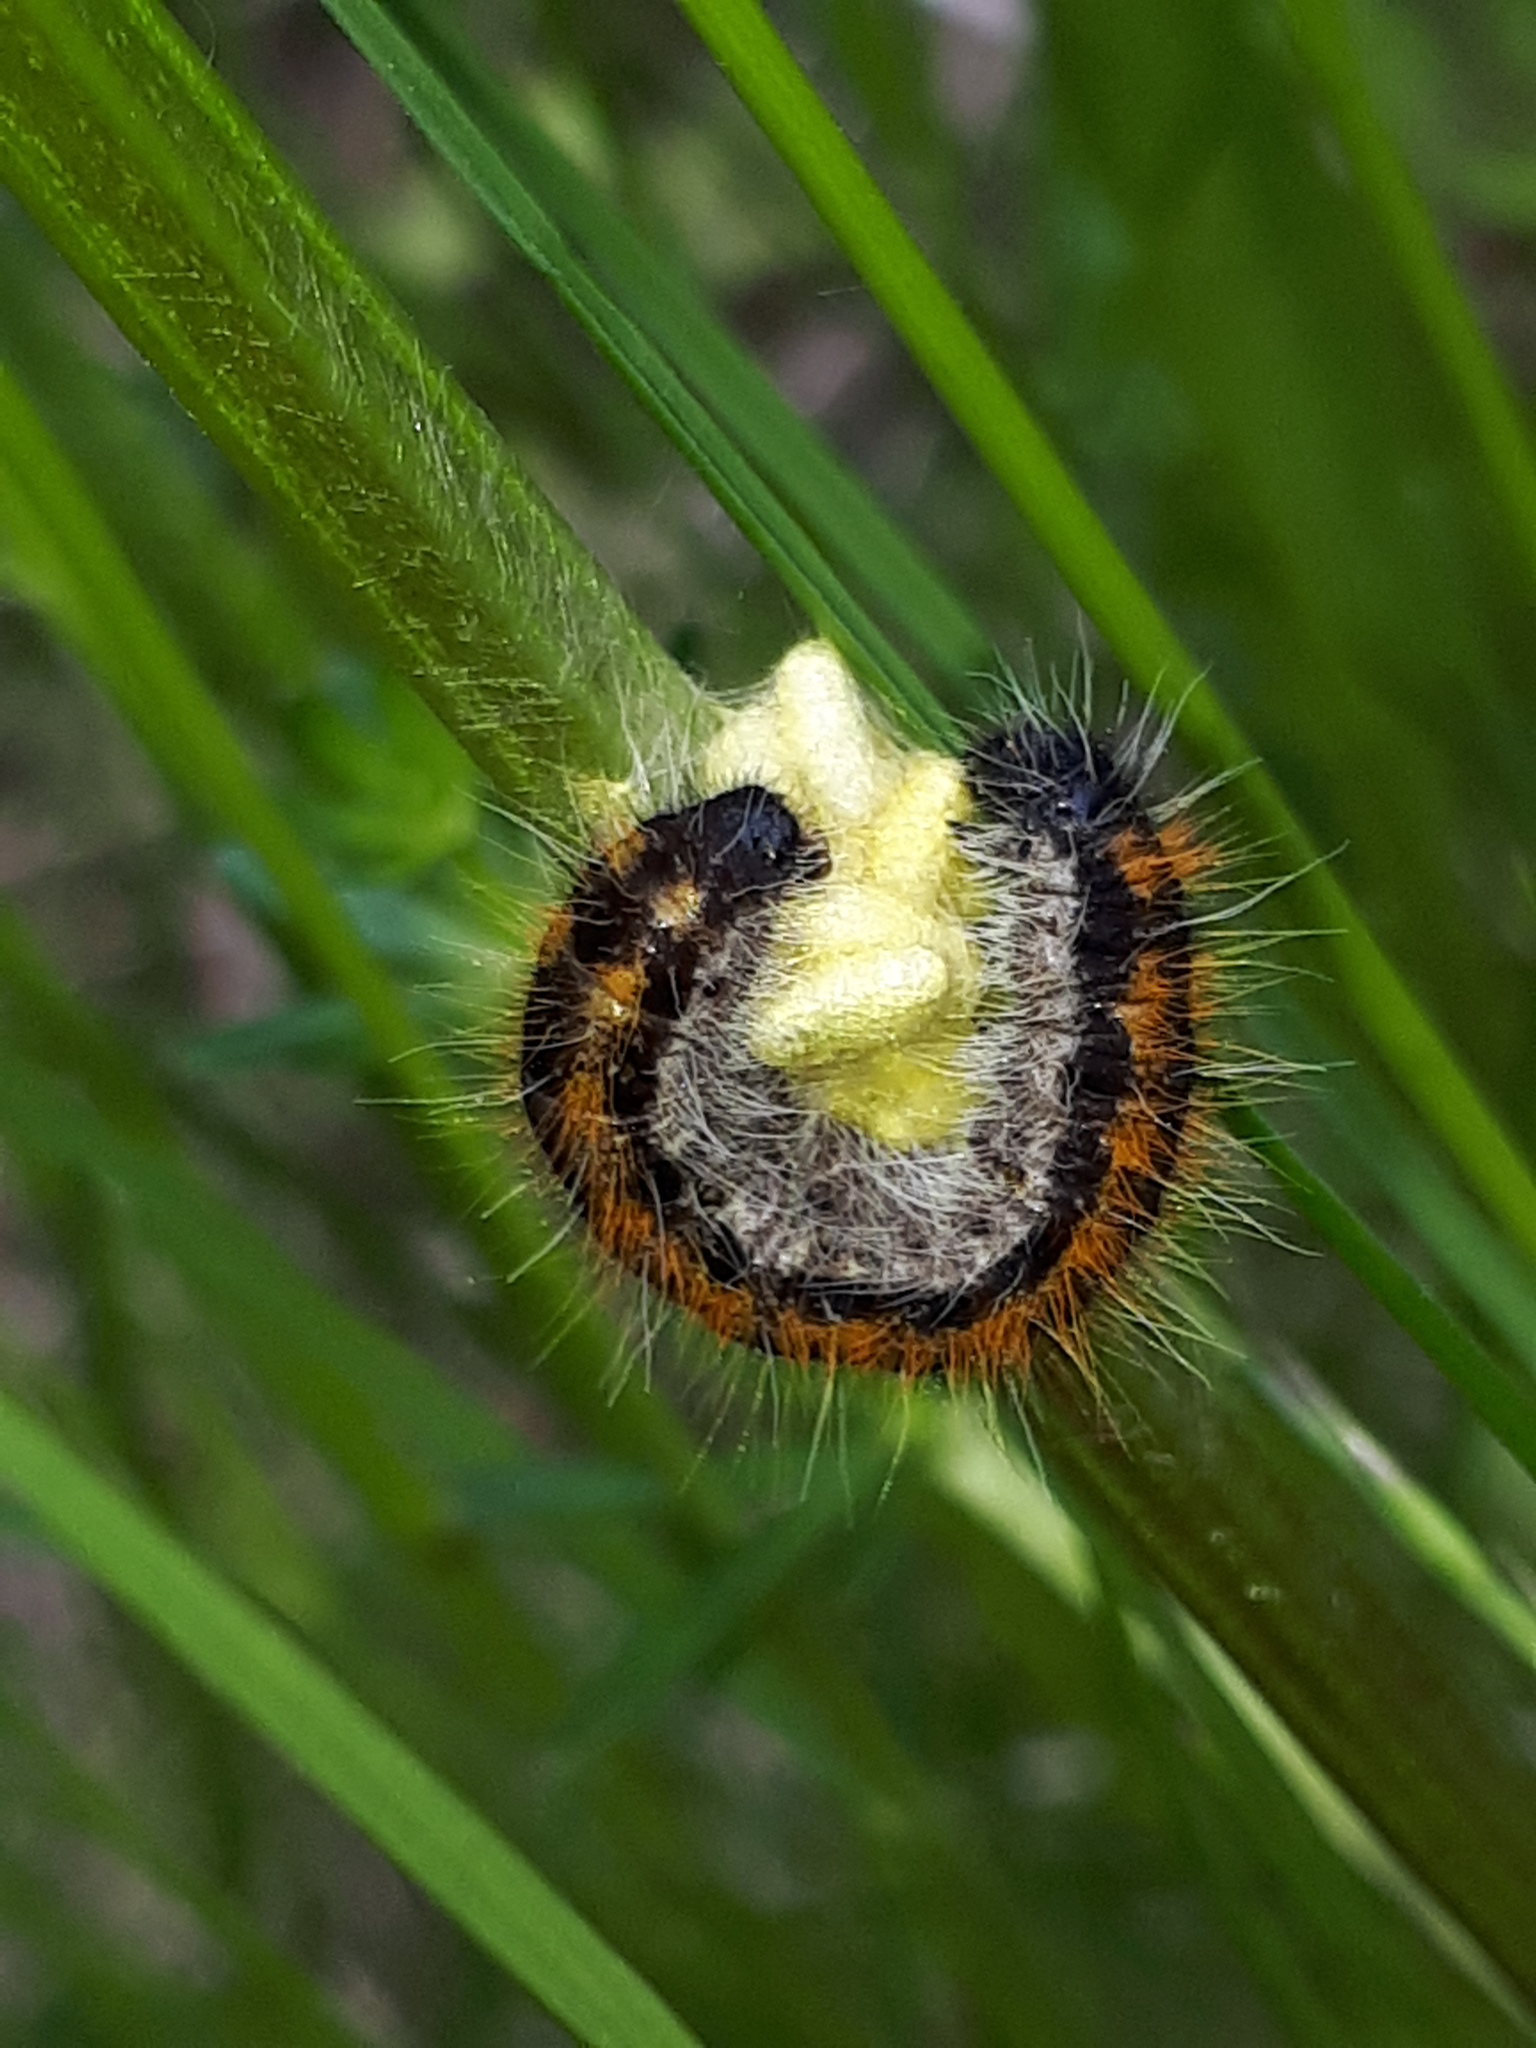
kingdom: Animalia
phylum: Arthropoda
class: Insecta
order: Lepidoptera
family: Pieridae
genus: Aporia
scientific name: Aporia crataegi
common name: Black-veined white
